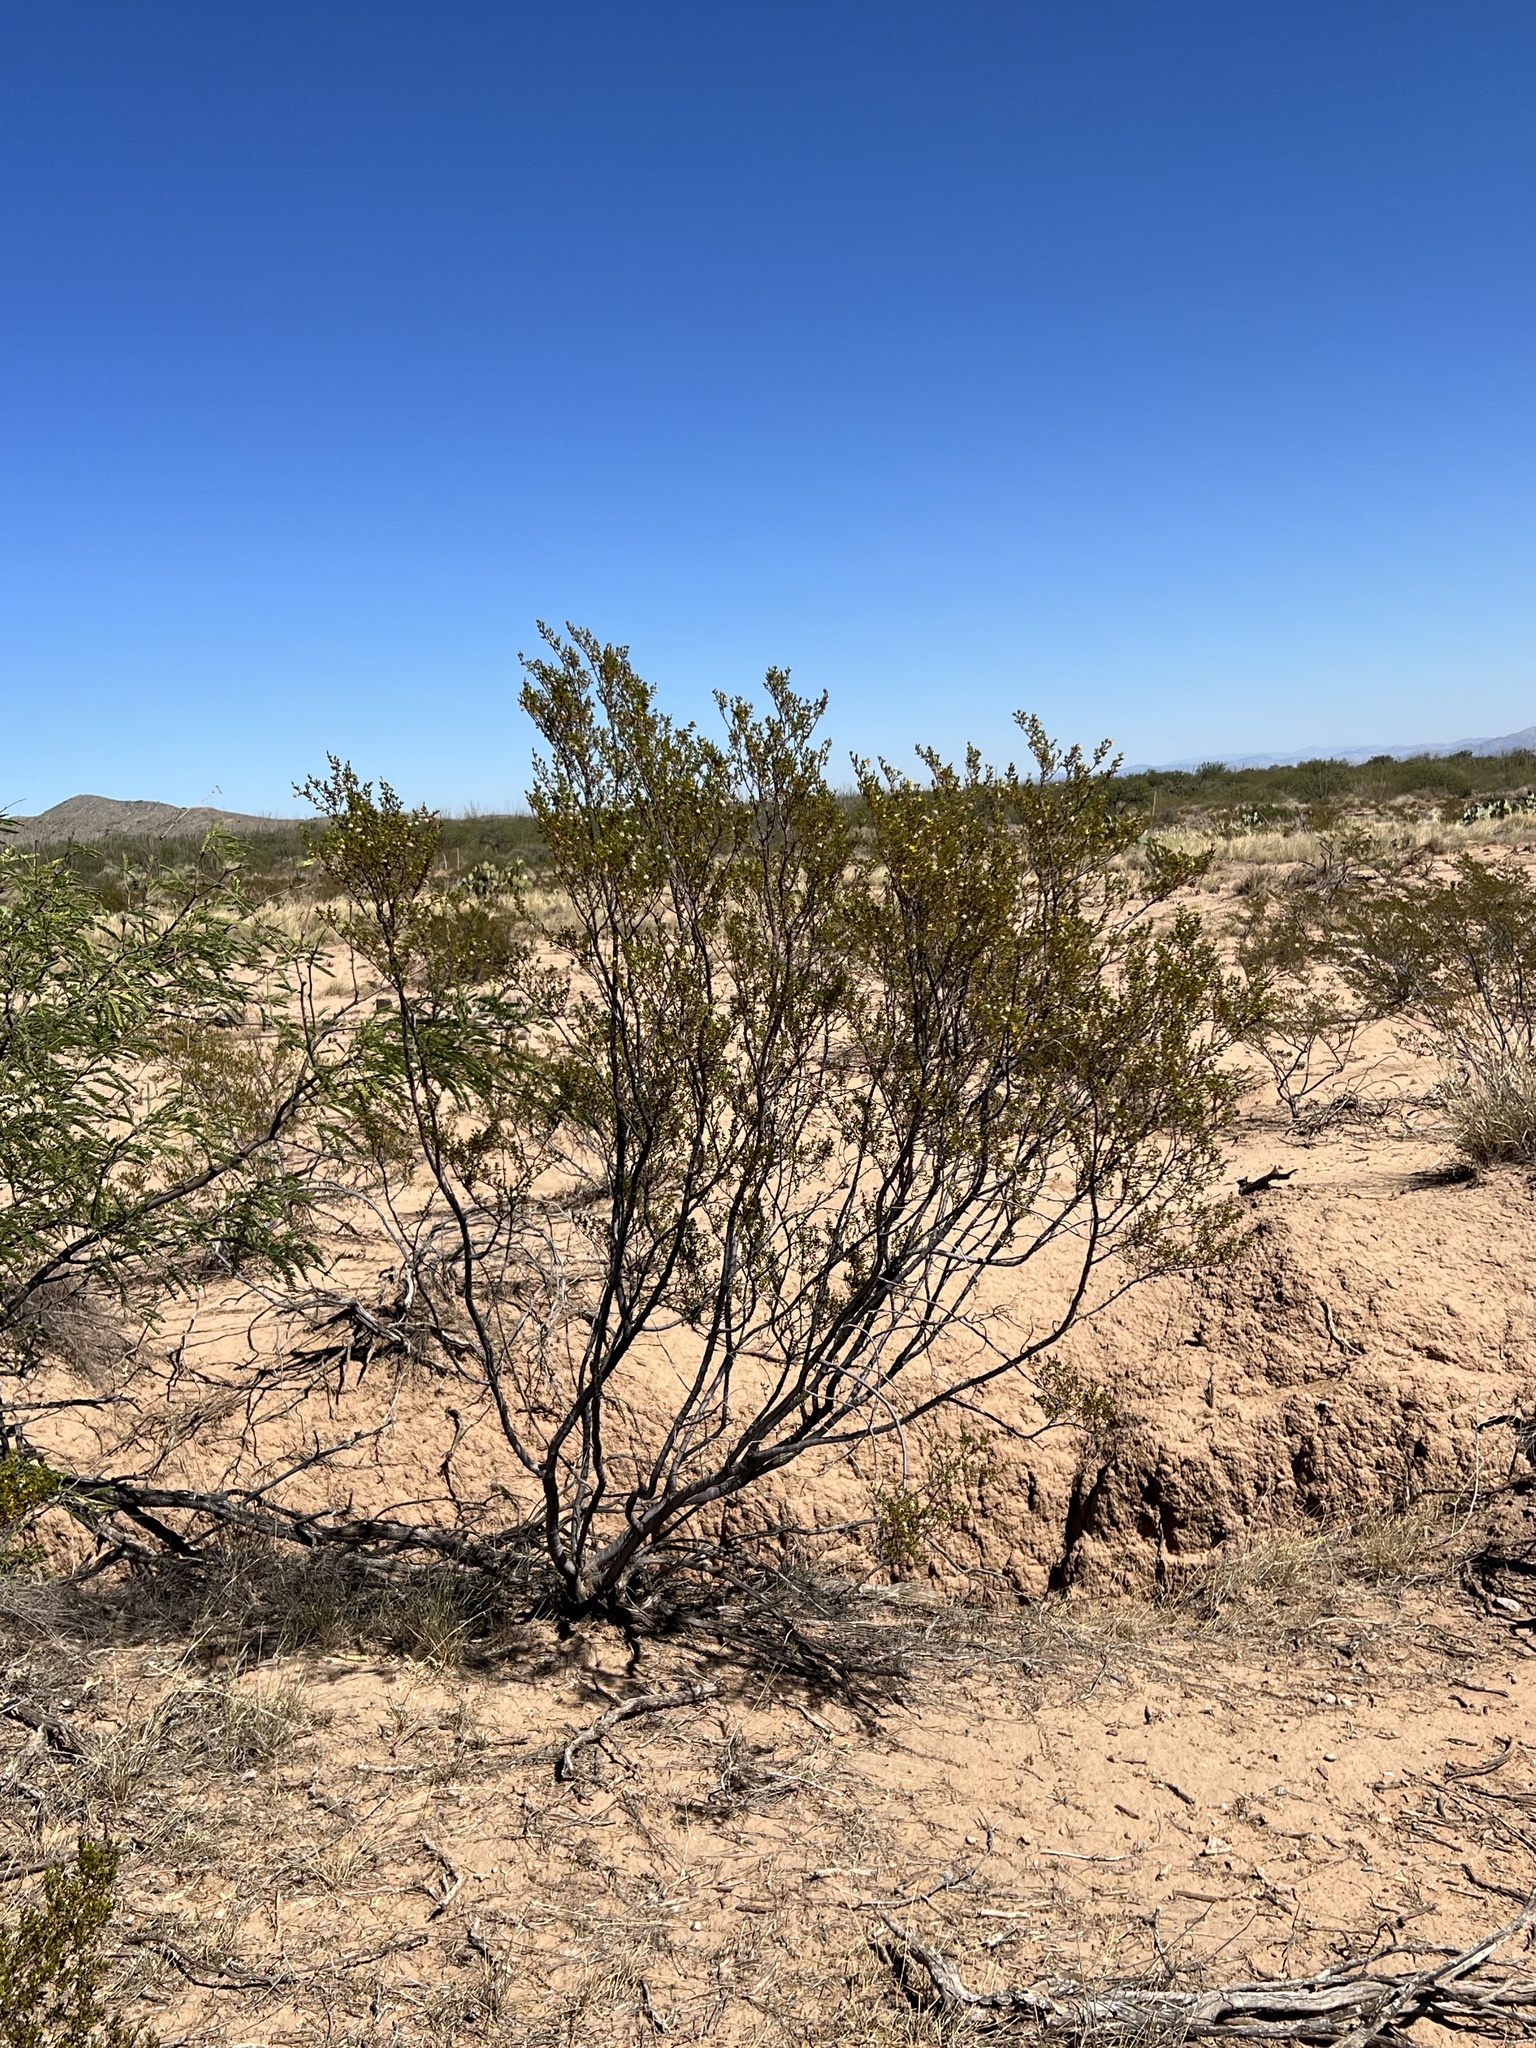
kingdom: Plantae
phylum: Tracheophyta
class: Magnoliopsida
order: Zygophyllales
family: Zygophyllaceae
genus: Larrea
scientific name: Larrea tridentata
